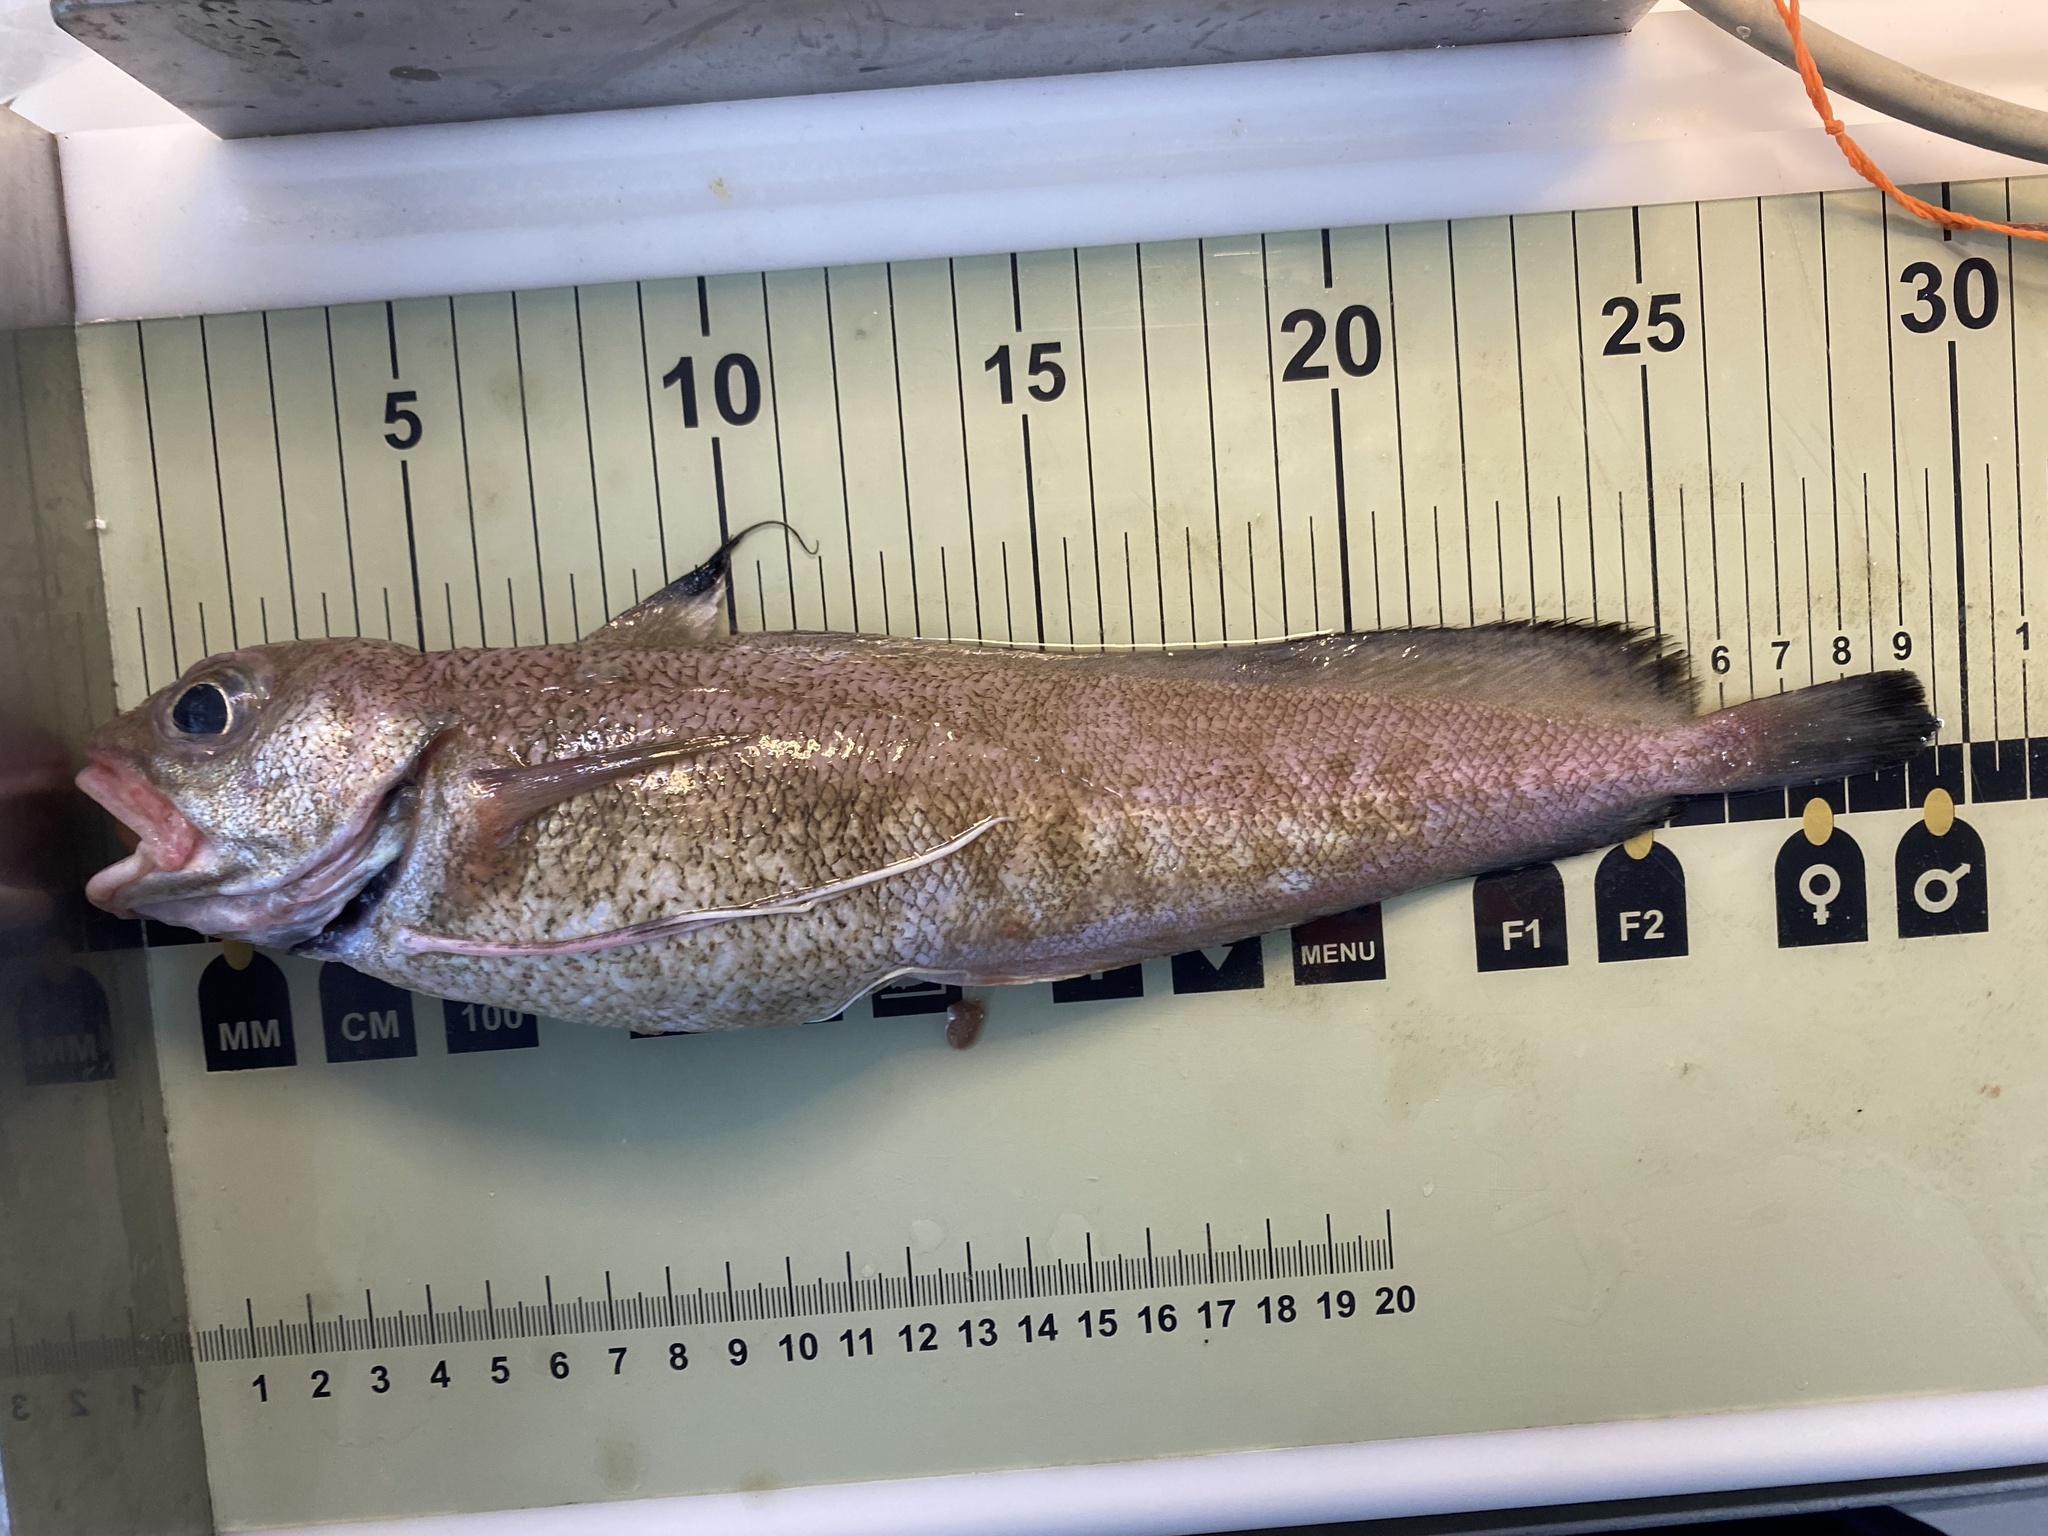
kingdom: Animalia
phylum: Chordata
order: Gadiformes
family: Phycidae
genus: Phycis
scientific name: Phycis blennoides
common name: Forked hake
